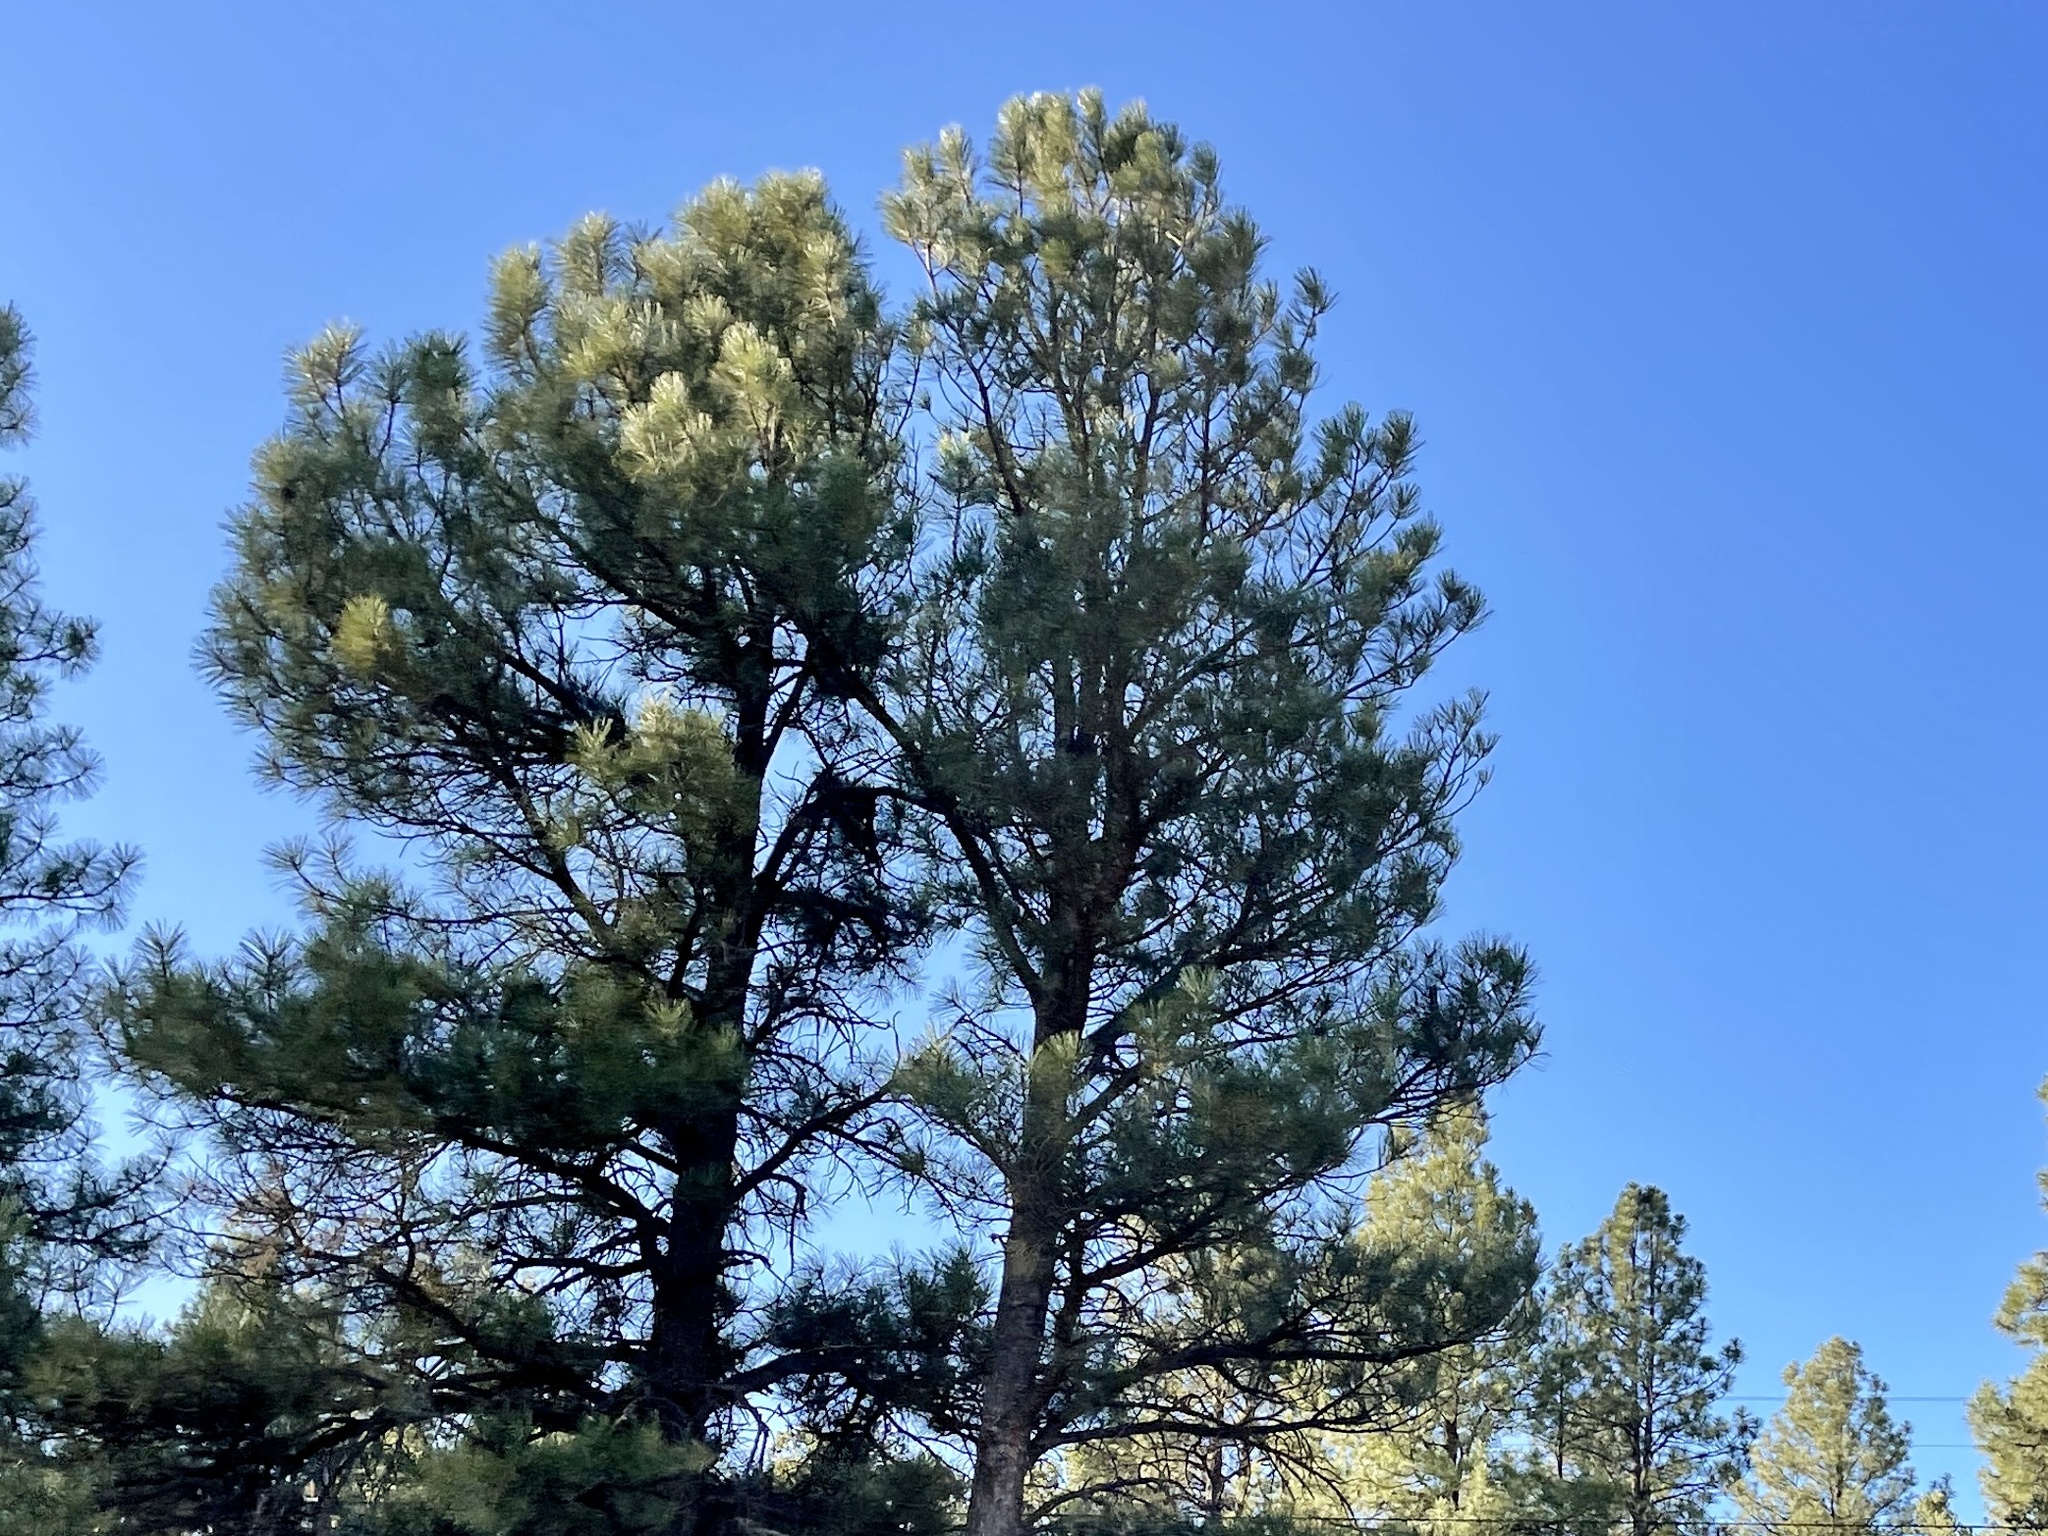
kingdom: Plantae
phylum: Tracheophyta
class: Pinopsida
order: Pinales
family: Pinaceae
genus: Pinus
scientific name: Pinus ponderosa
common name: Western yellow-pine
